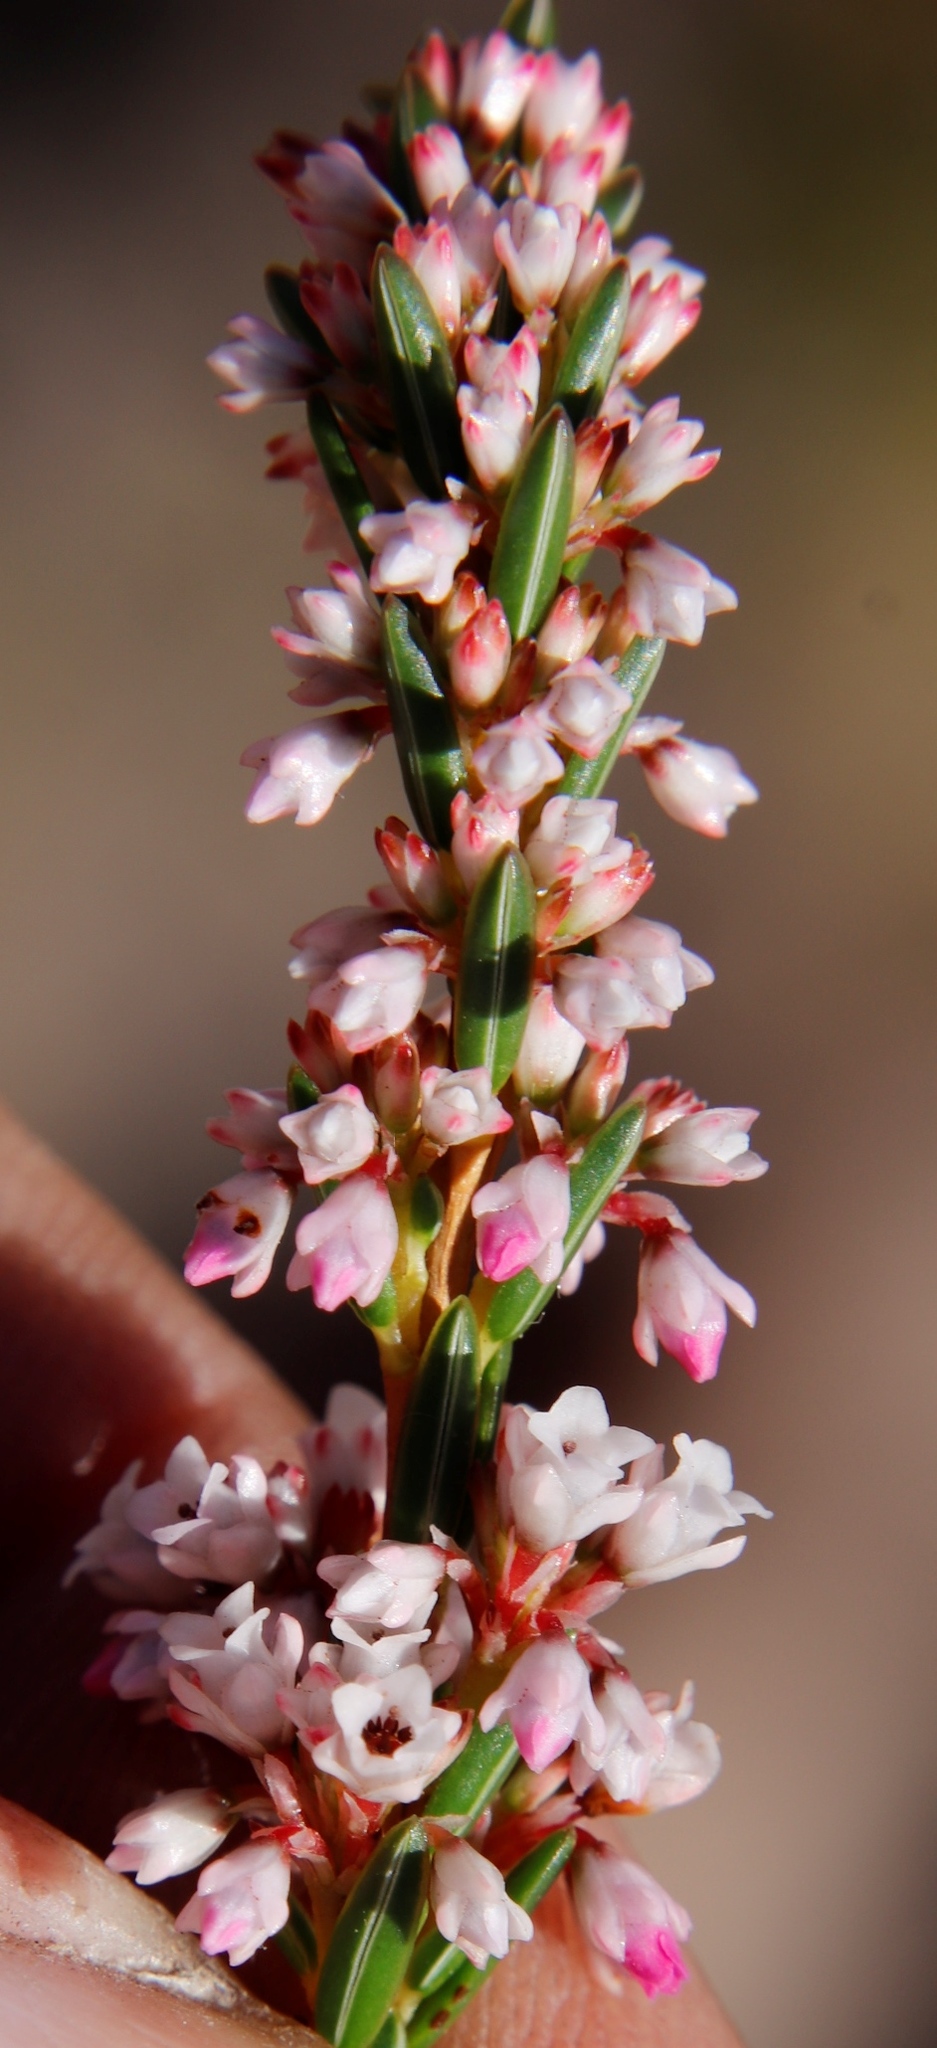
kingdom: Plantae
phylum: Tracheophyta
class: Magnoliopsida
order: Ericales
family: Ericaceae
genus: Erica
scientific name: Erica articularis
